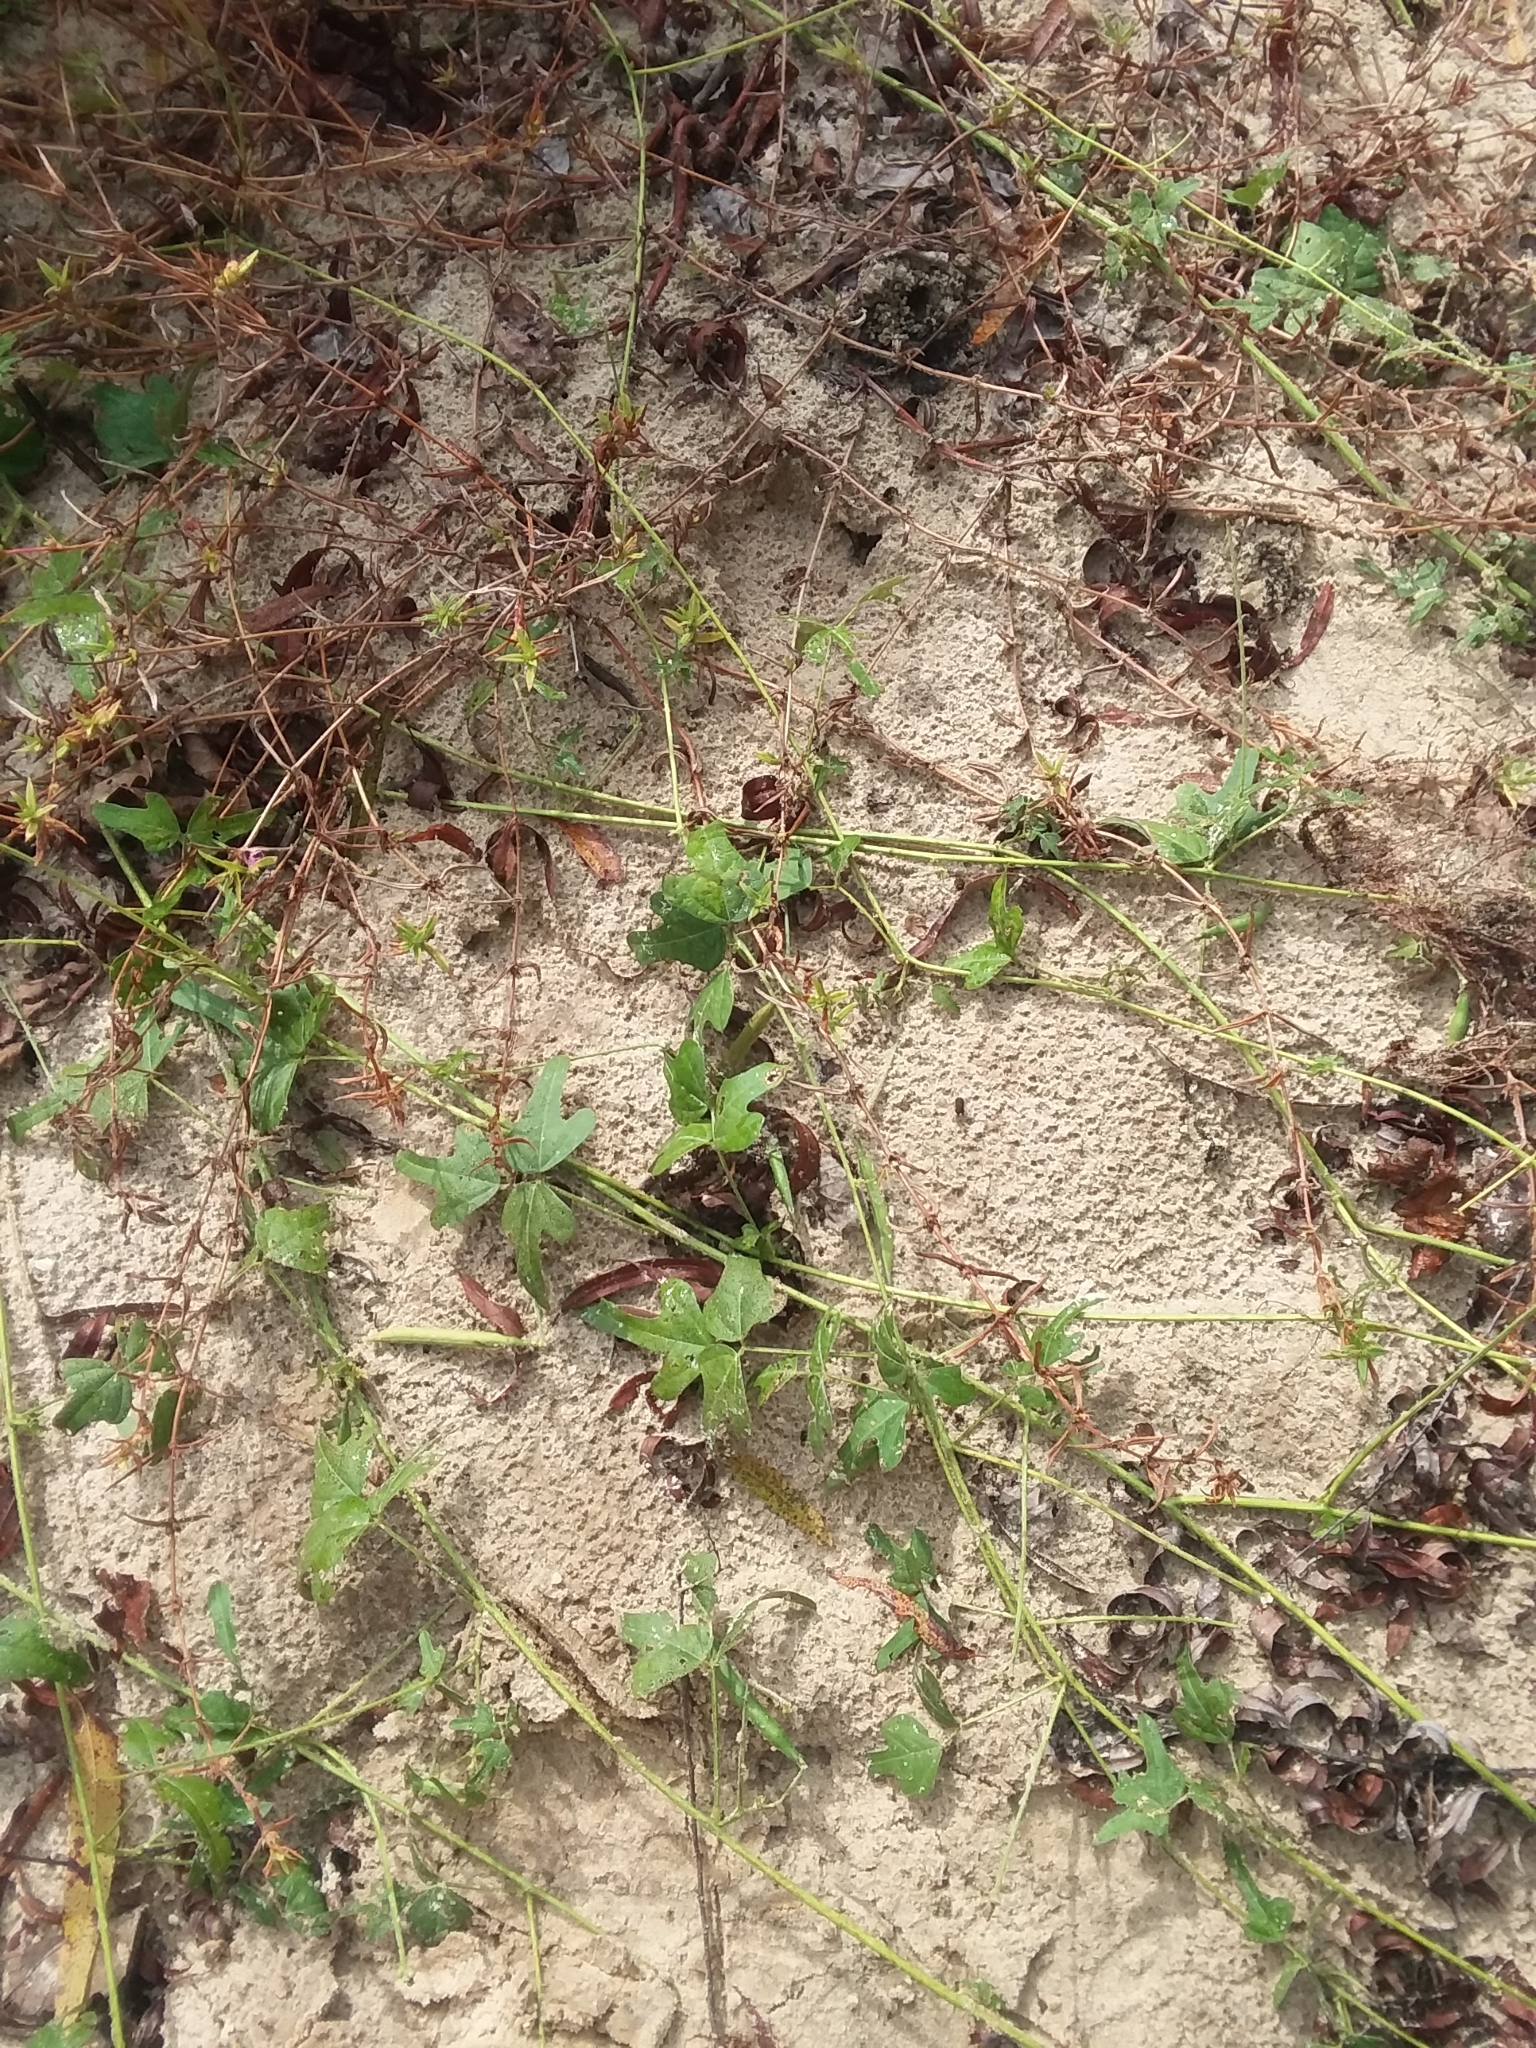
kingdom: Plantae
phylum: Tracheophyta
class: Magnoliopsida
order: Fabales
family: Fabaceae
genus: Strophostyles
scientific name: Strophostyles helvola
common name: Trailing wild bean
